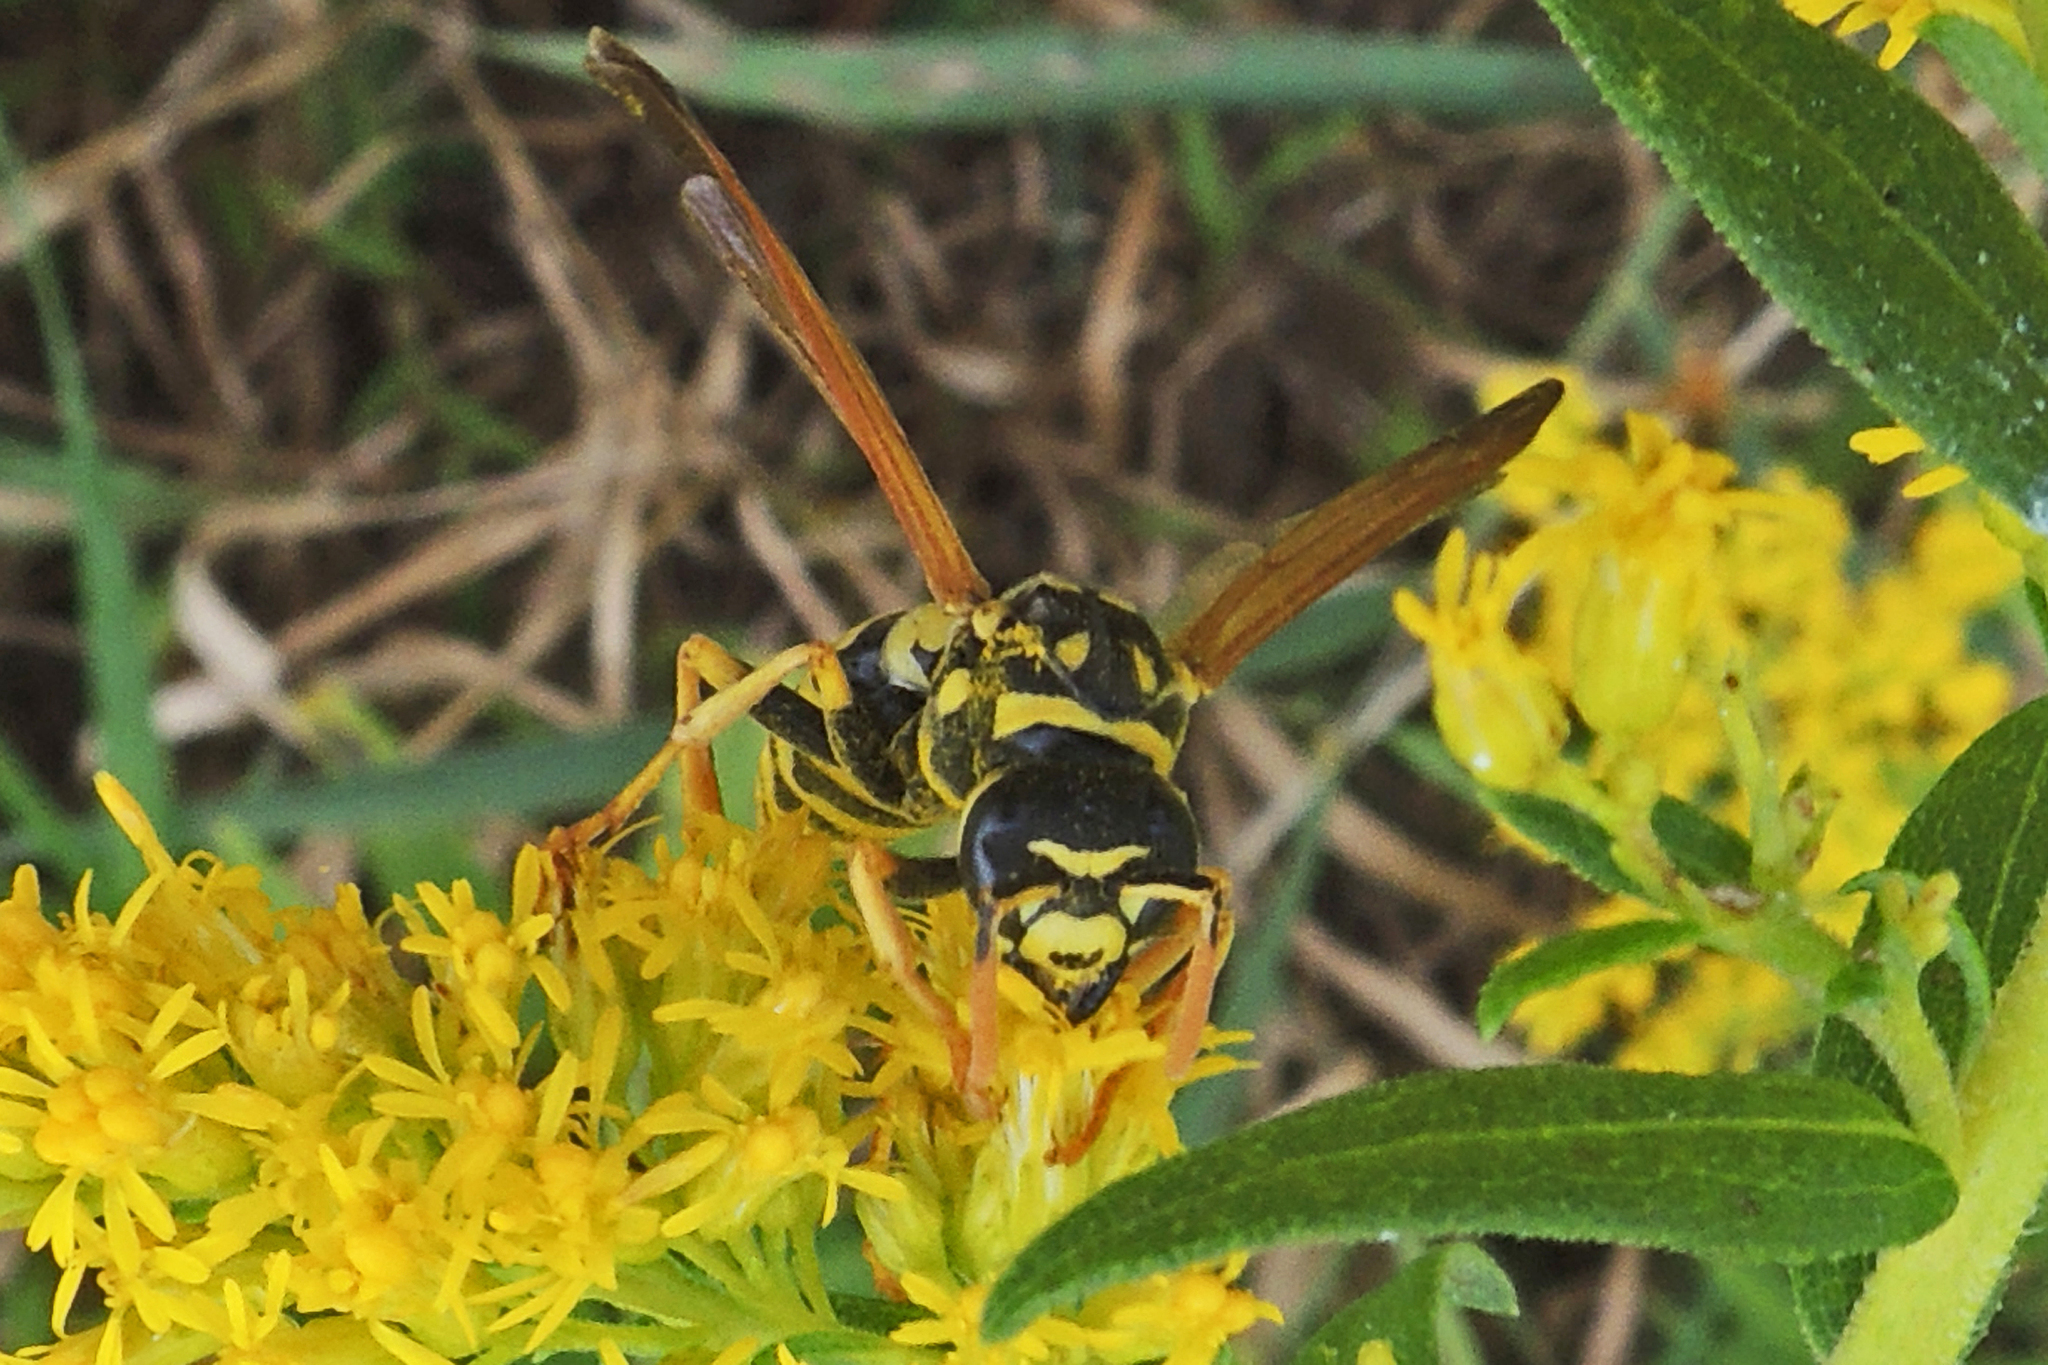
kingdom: Animalia
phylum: Arthropoda
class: Insecta
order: Hymenoptera
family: Eumenidae
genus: Polistes
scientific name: Polistes dominula
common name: Paper wasp
